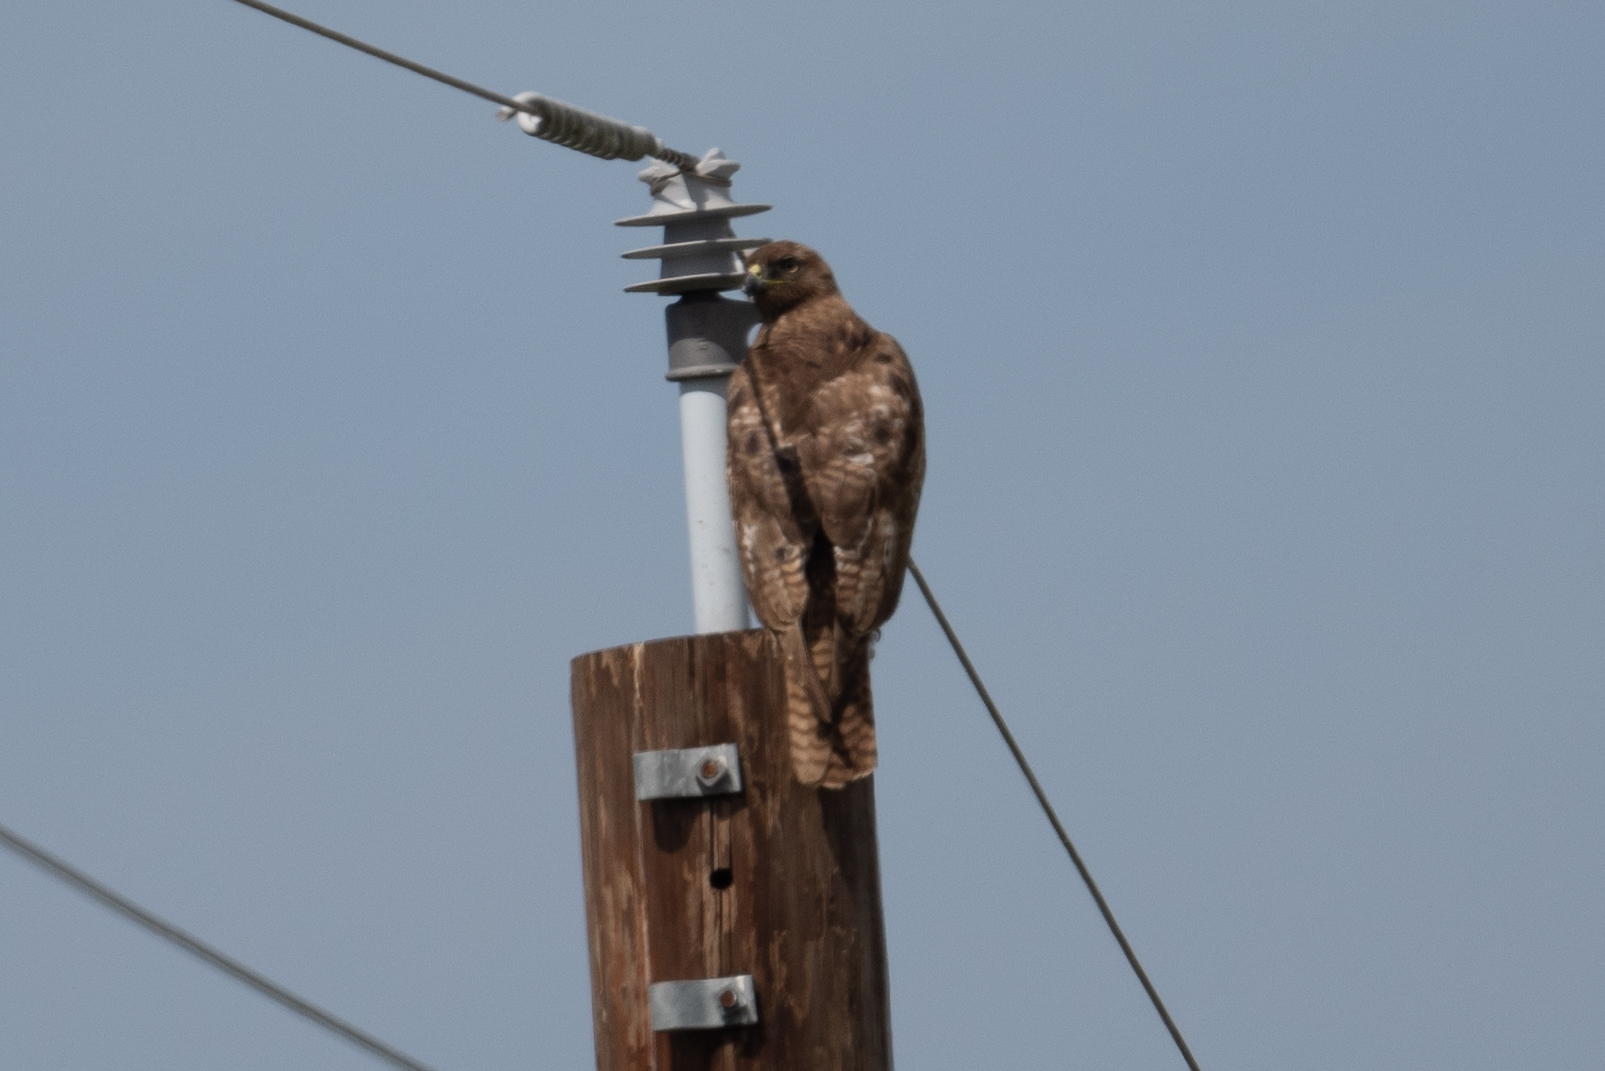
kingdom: Animalia
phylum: Chordata
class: Aves
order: Accipitriformes
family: Accipitridae
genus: Buteo
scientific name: Buteo jamaicensis
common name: Red-tailed hawk
